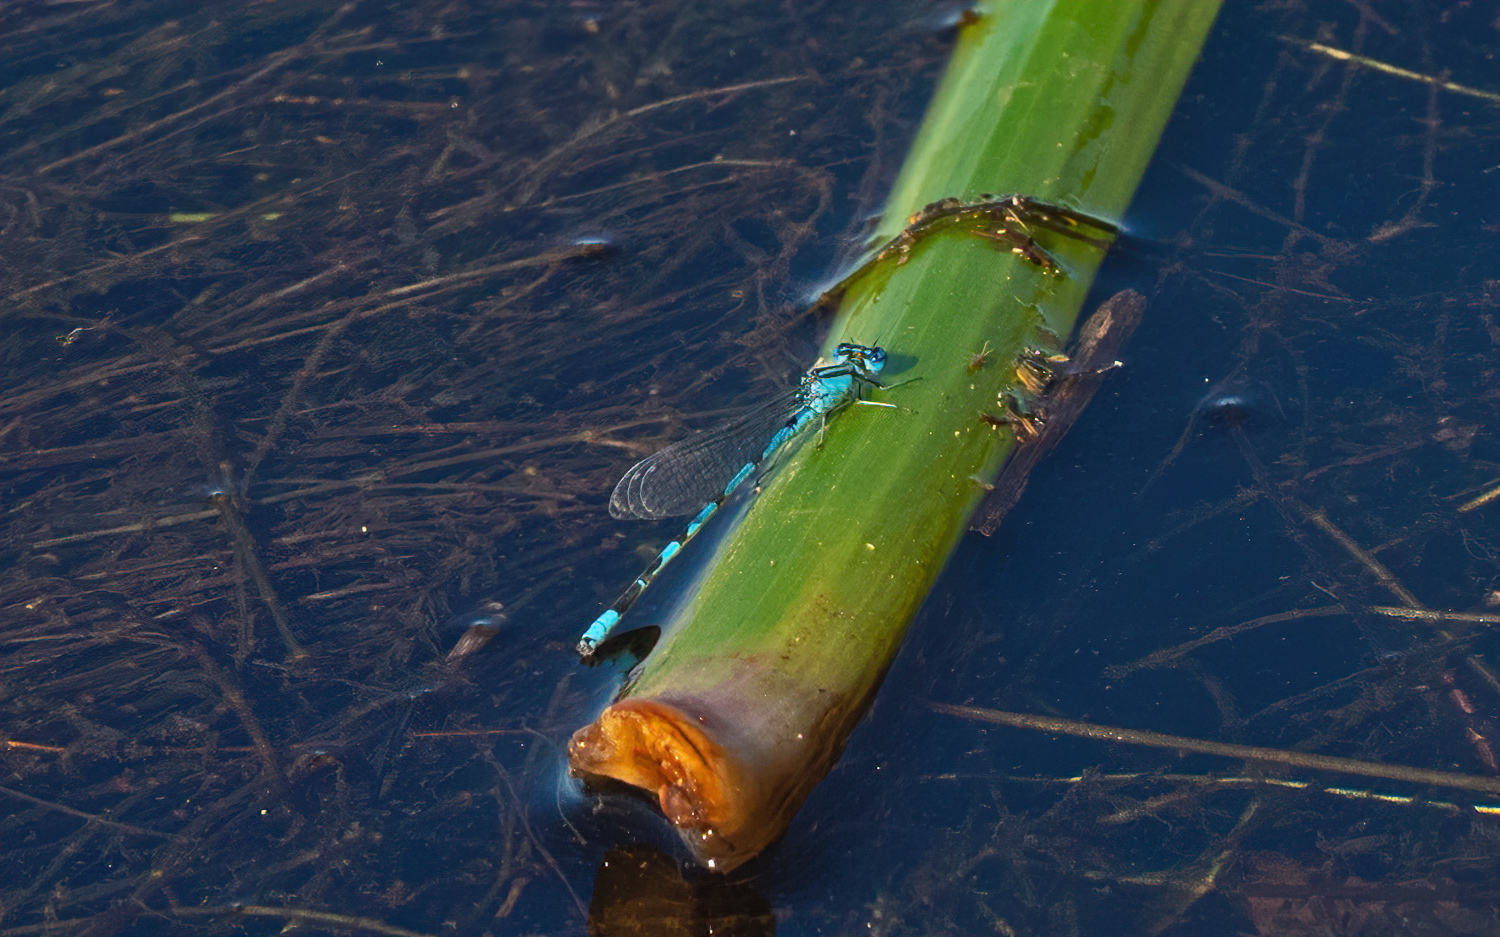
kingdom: Animalia
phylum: Arthropoda
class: Insecta
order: Odonata
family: Coenagrionidae
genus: Enallagma
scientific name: Enallagma durum
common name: Big bluet
